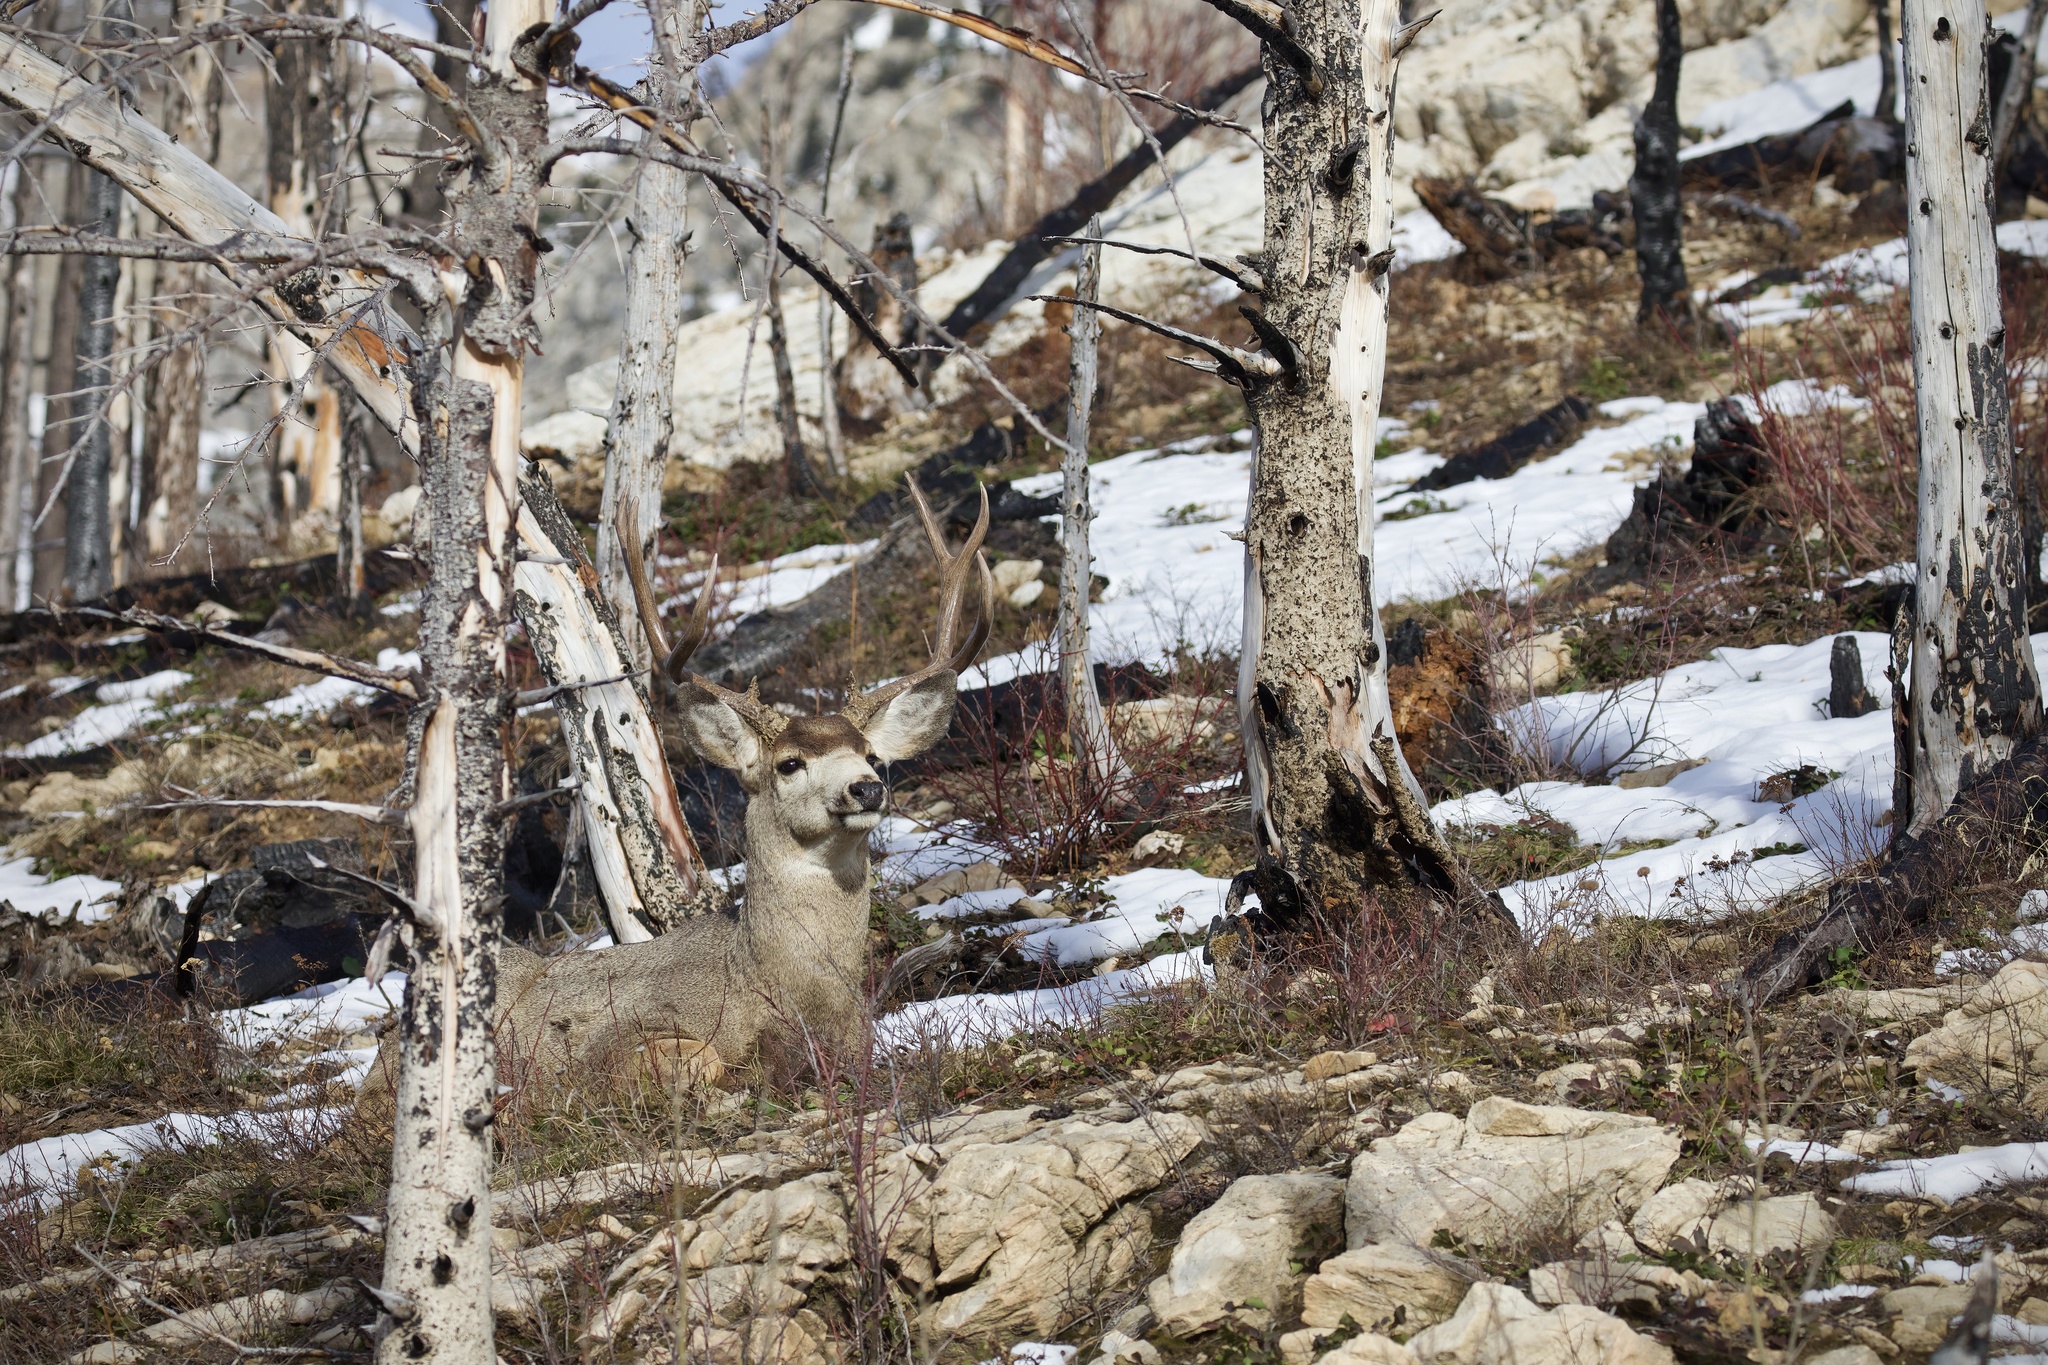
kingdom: Animalia
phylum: Chordata
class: Mammalia
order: Artiodactyla
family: Cervidae
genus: Odocoileus
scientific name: Odocoileus hemionus
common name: Mule deer
